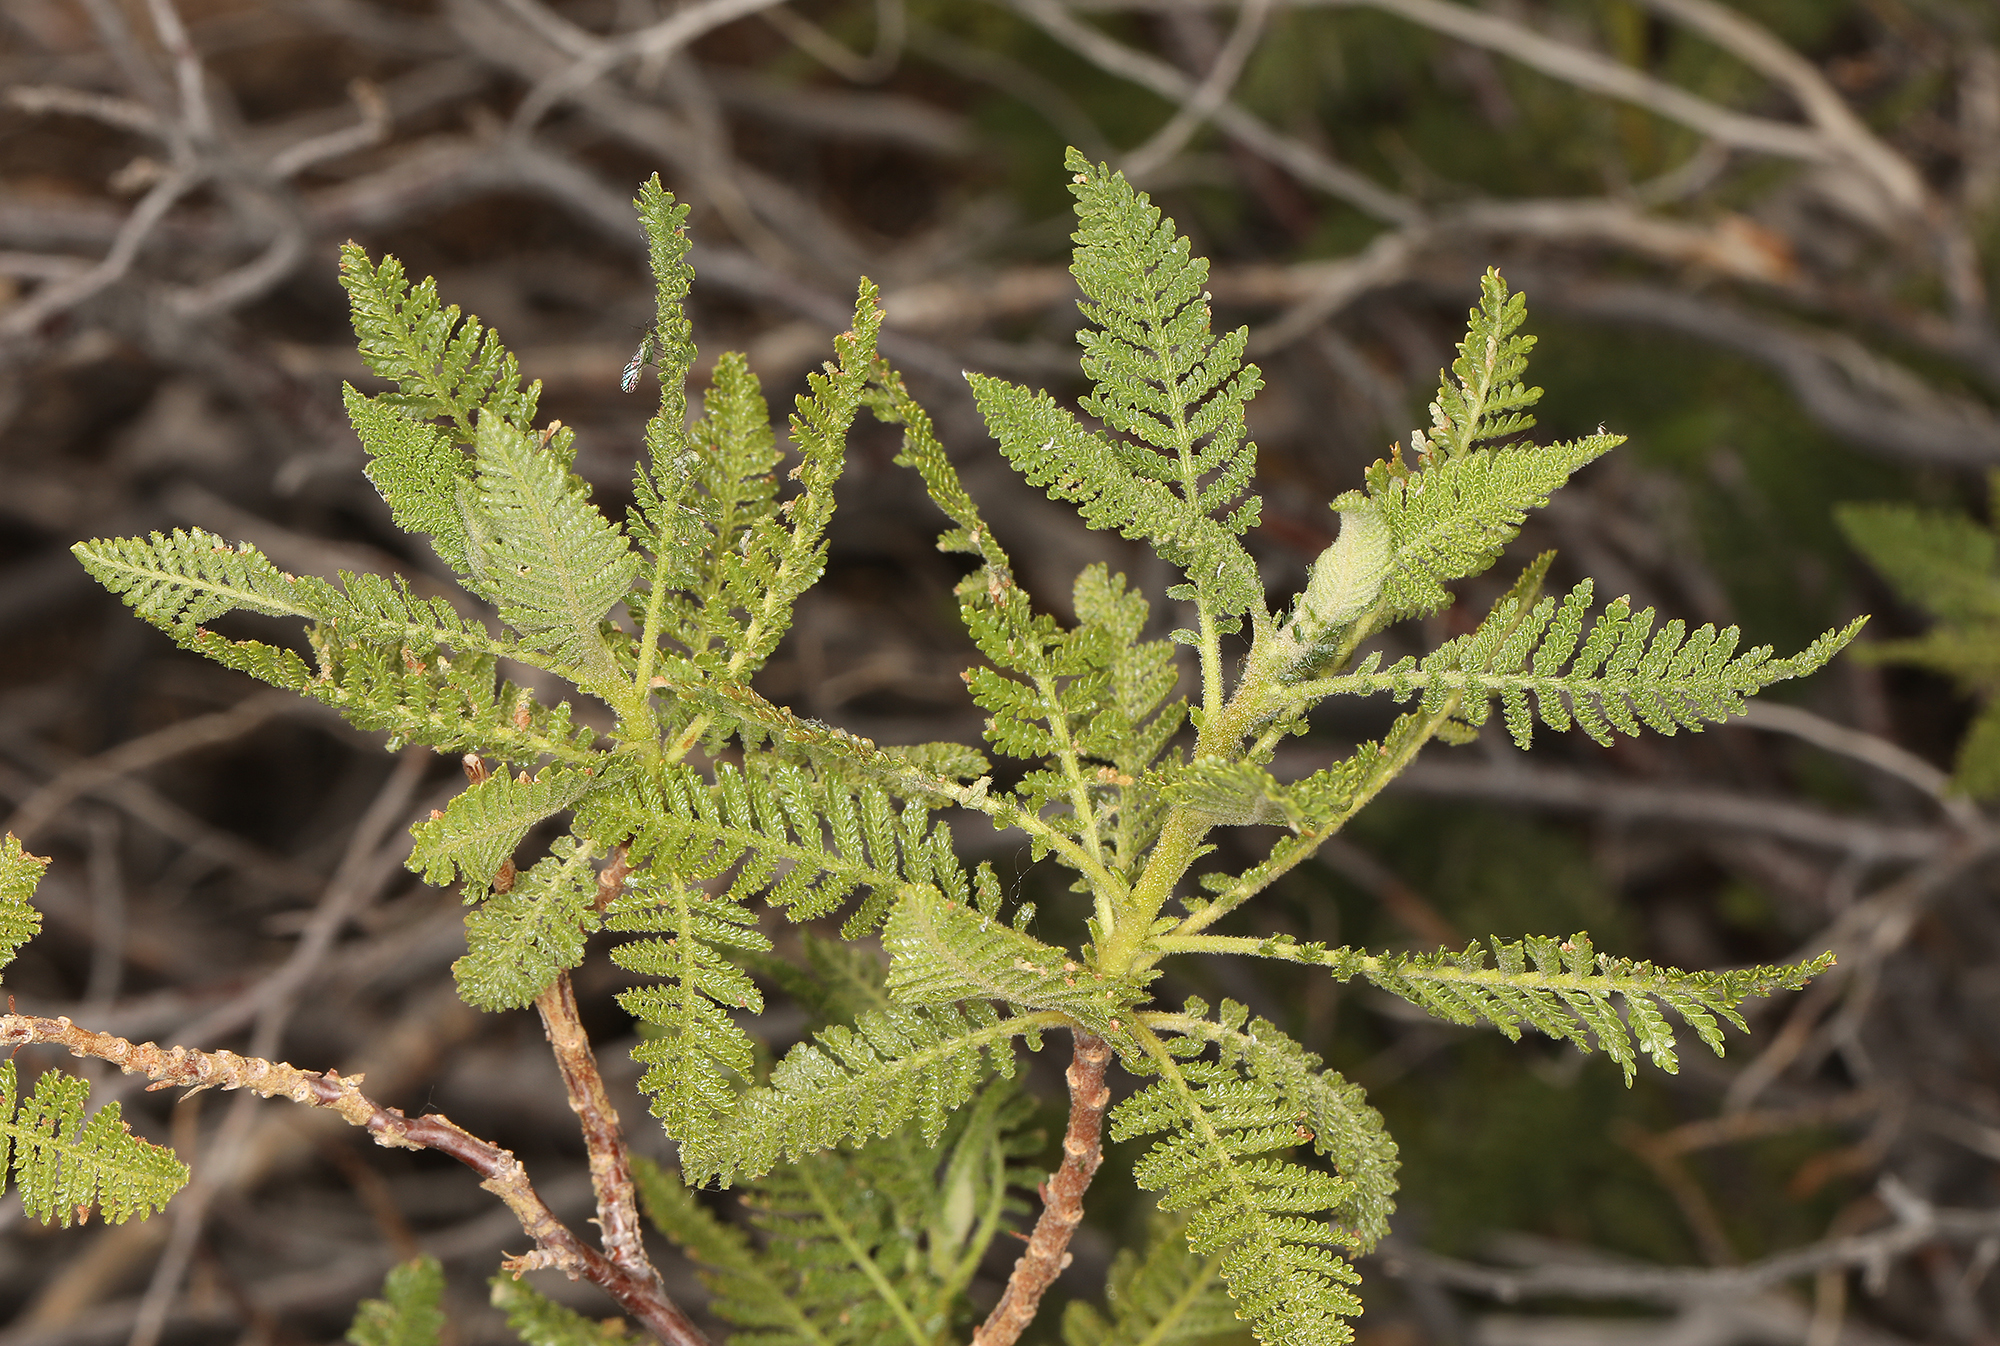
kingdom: Plantae
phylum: Tracheophyta
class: Magnoliopsida
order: Rosales
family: Rosaceae
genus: Chamaebatiaria
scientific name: Chamaebatiaria millefolium
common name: Fernbush
